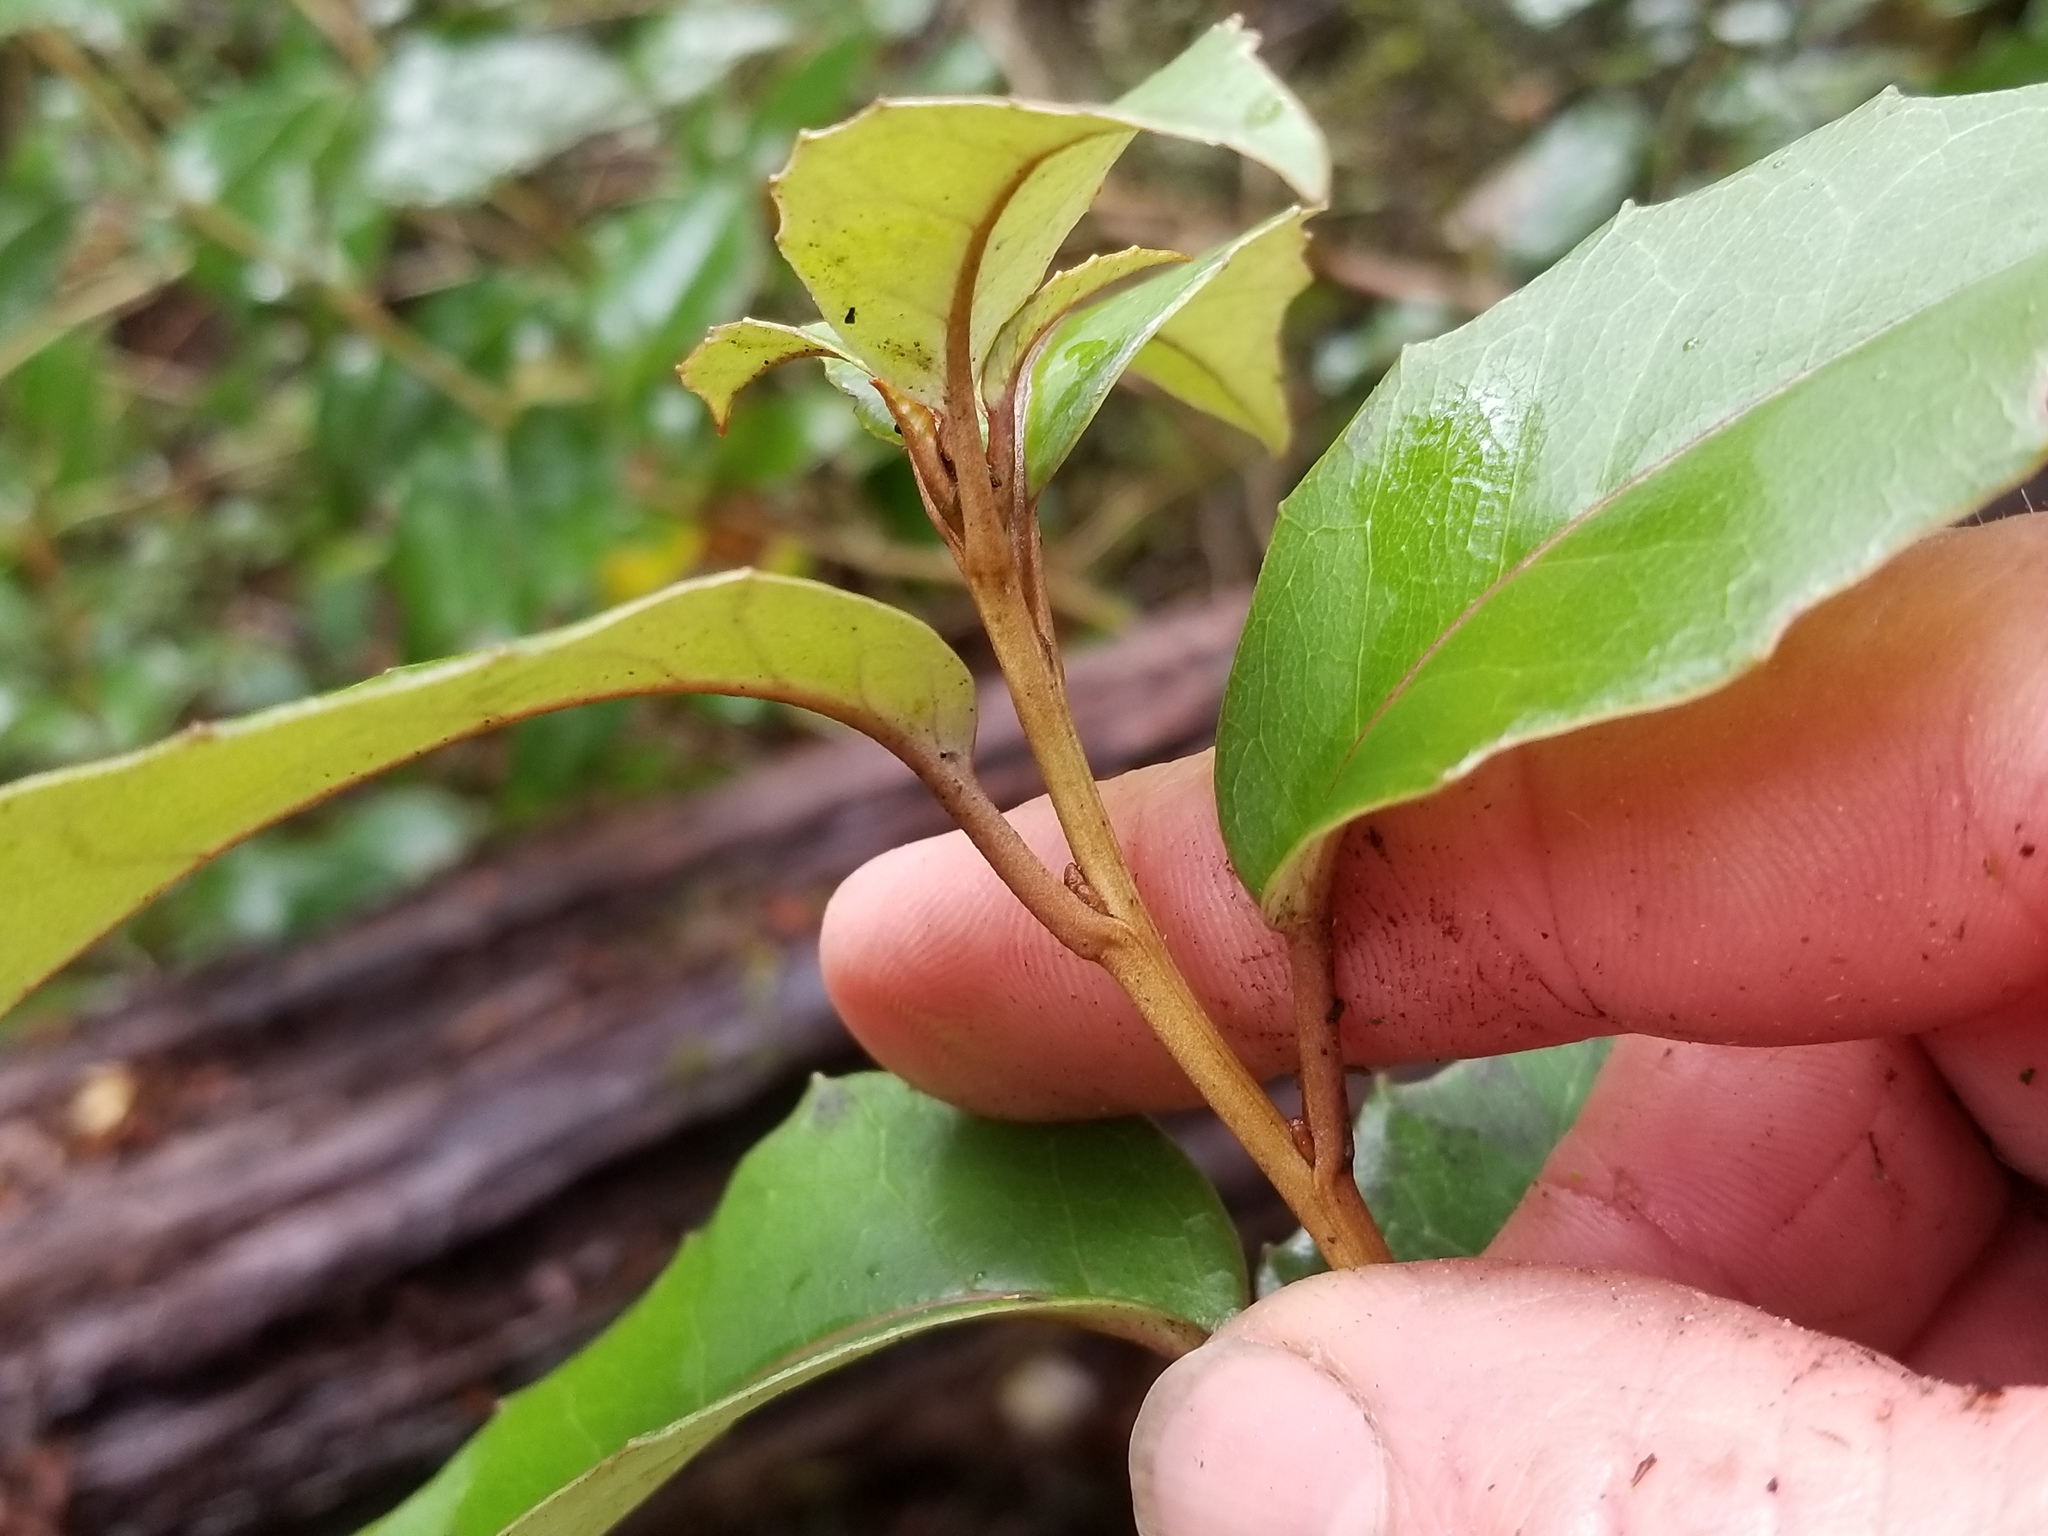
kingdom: Plantae
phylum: Tracheophyta
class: Magnoliopsida
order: Asterales
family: Asteraceae
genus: Olearia
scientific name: Olearia arborescens
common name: Glossy tree daisy
